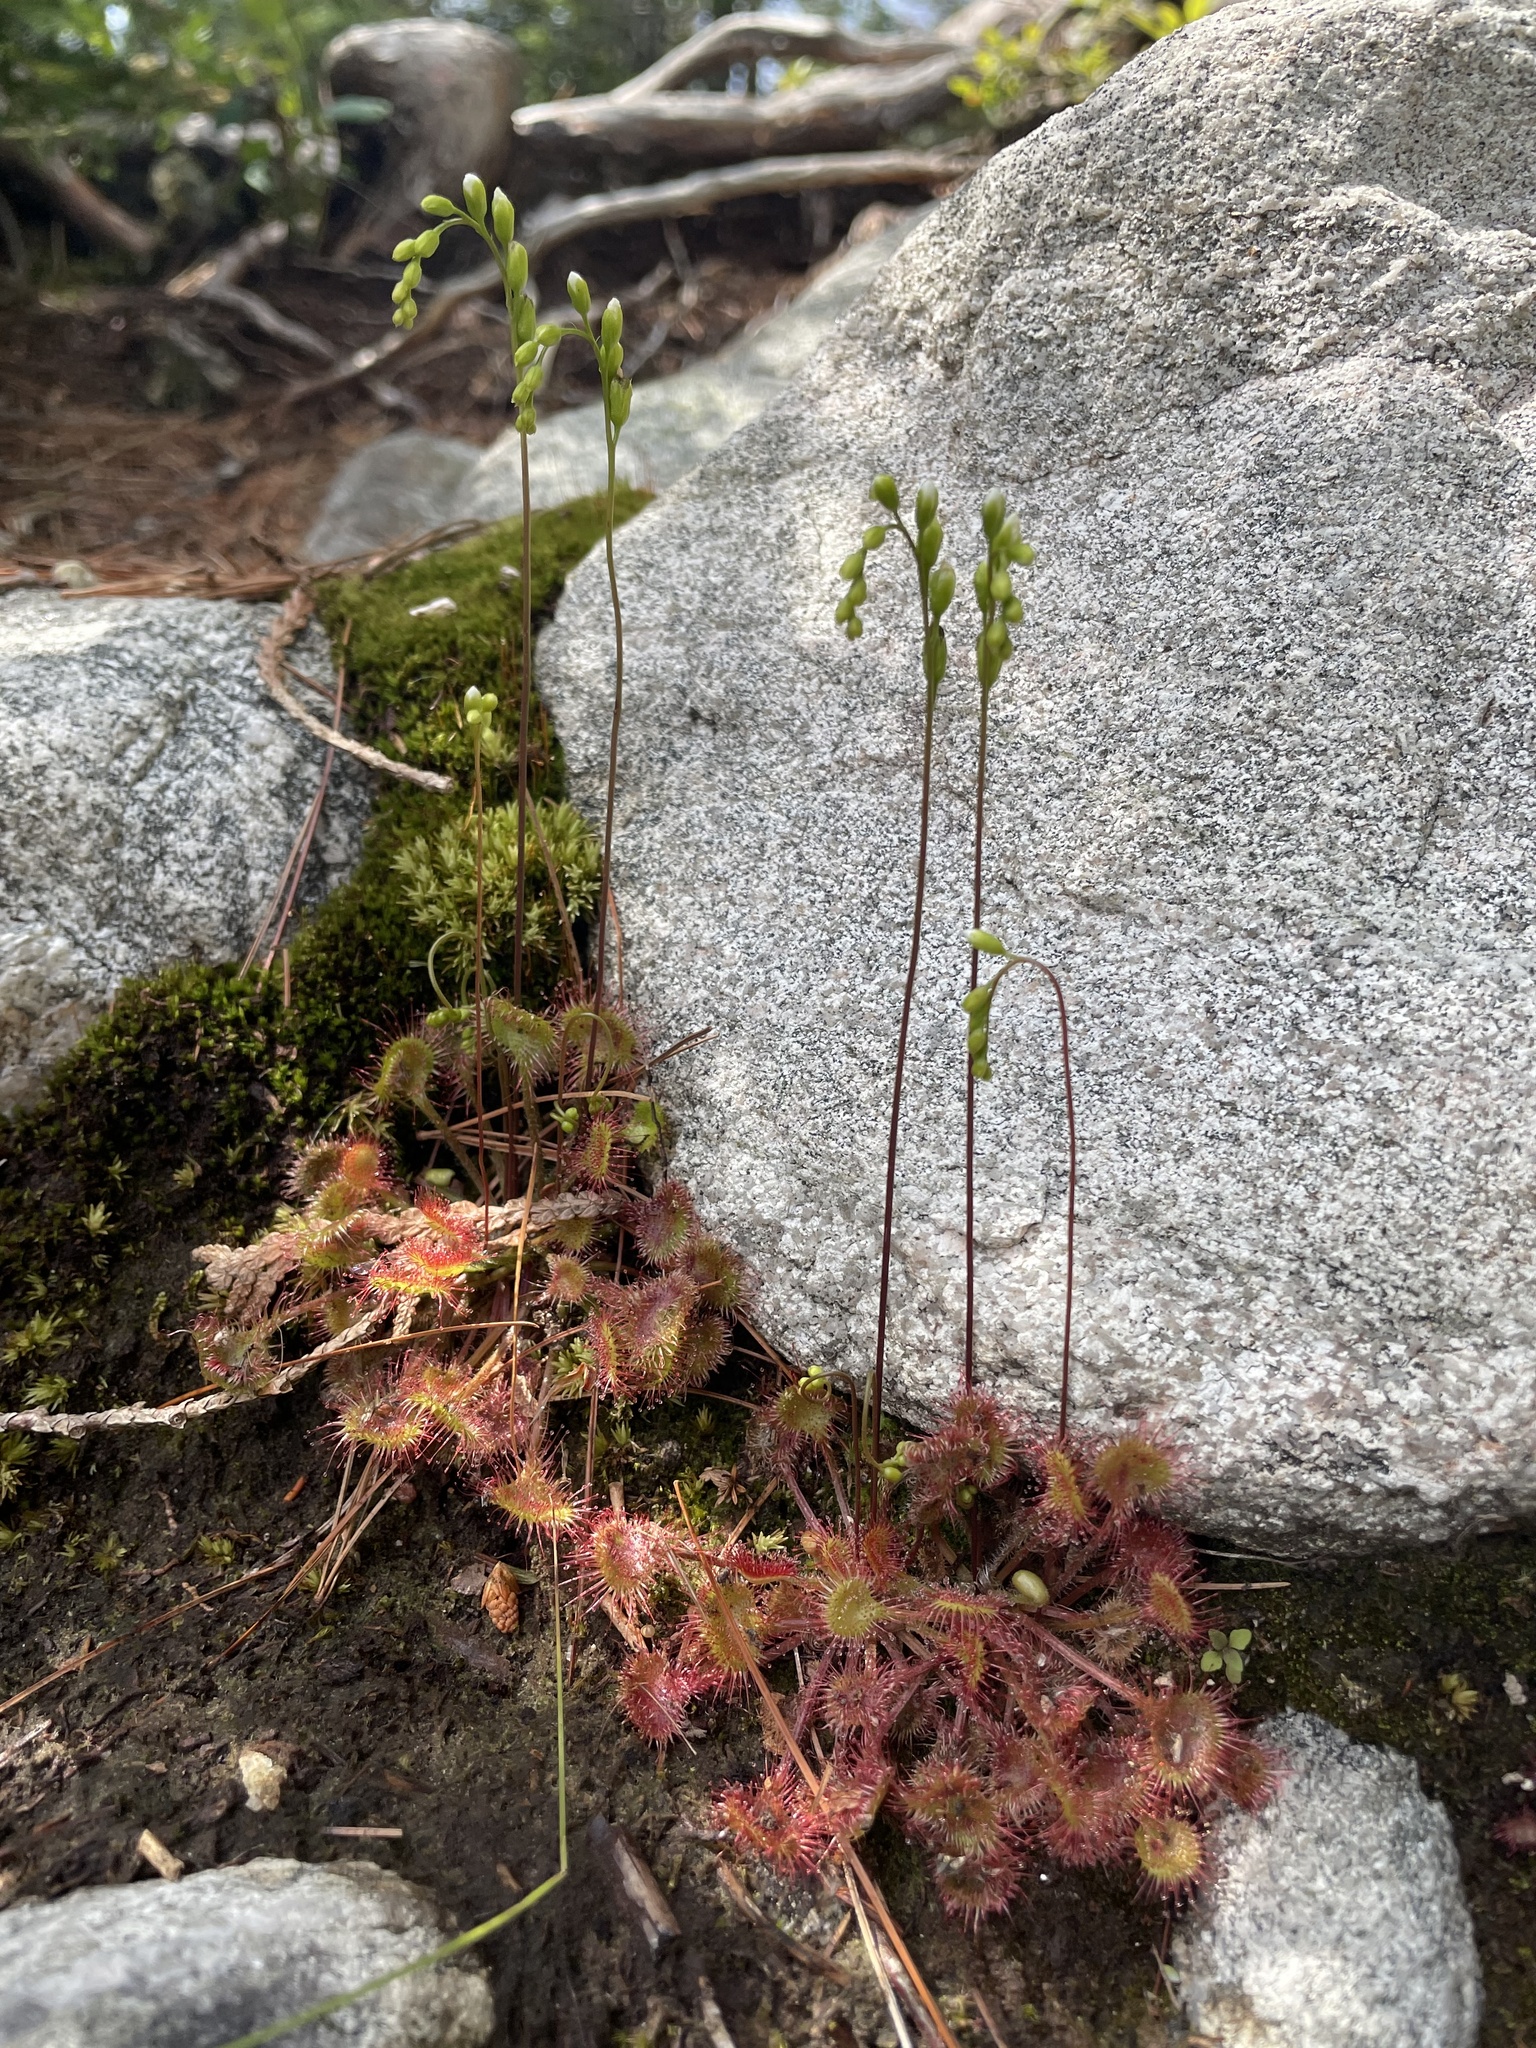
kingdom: Plantae
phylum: Tracheophyta
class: Magnoliopsida
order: Caryophyllales
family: Droseraceae
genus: Drosera
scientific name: Drosera rotundifolia
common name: Round-leaved sundew
